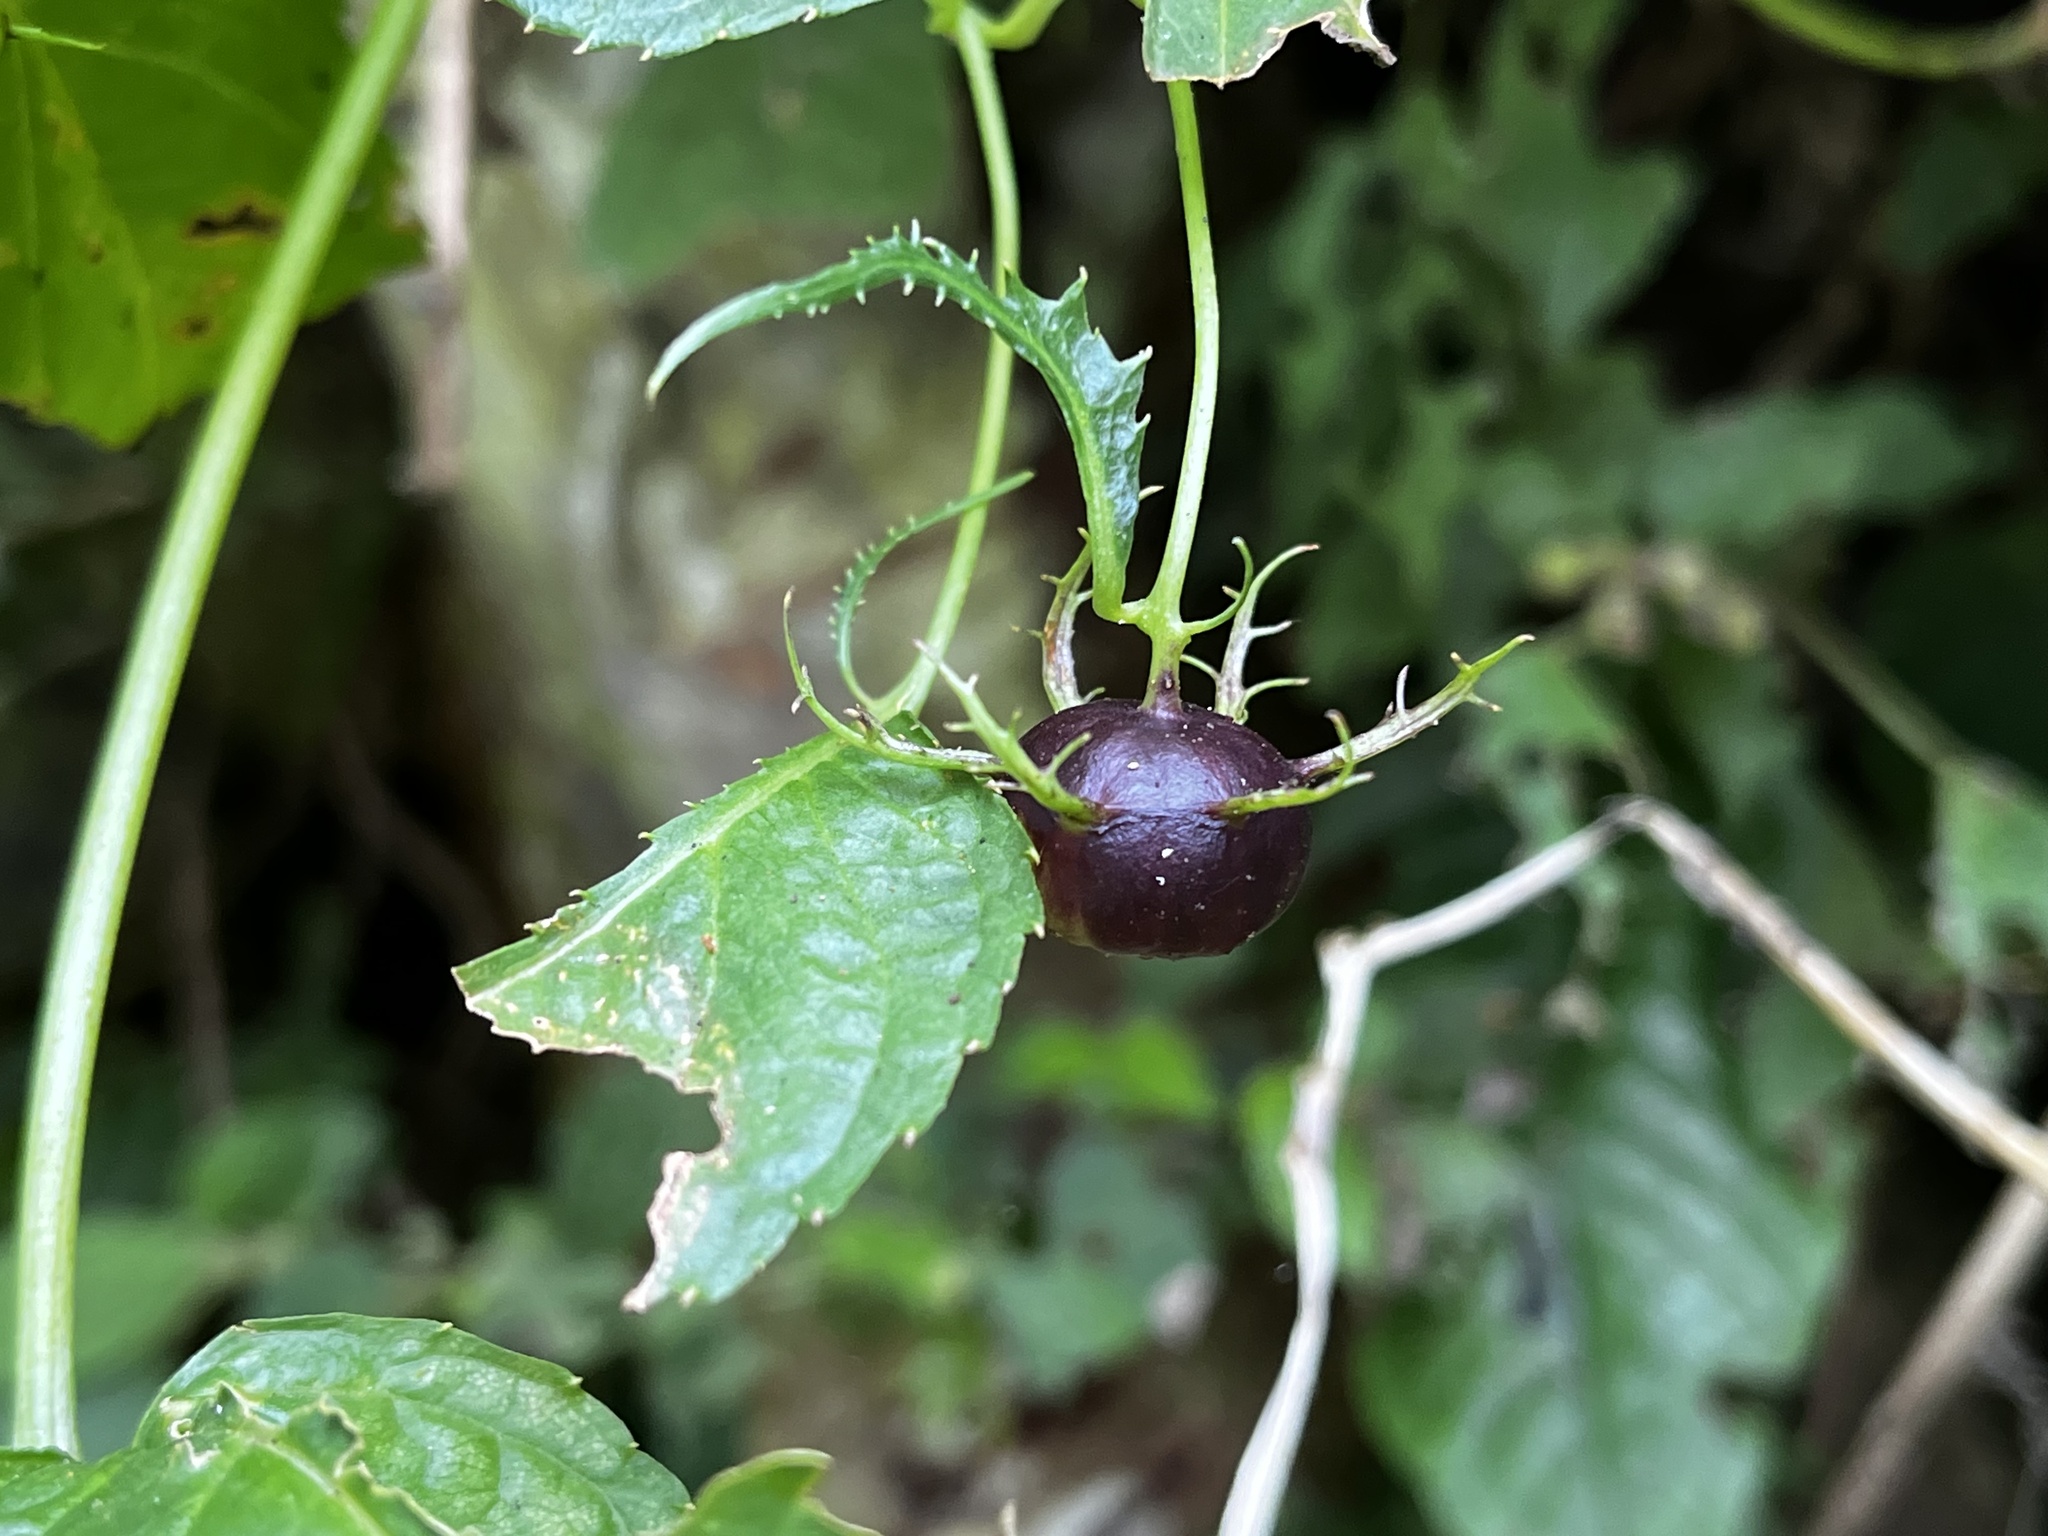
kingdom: Plantae
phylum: Tracheophyta
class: Magnoliopsida
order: Asterales
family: Campanulaceae
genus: Cyclocodon
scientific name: Cyclocodon lancifolius
